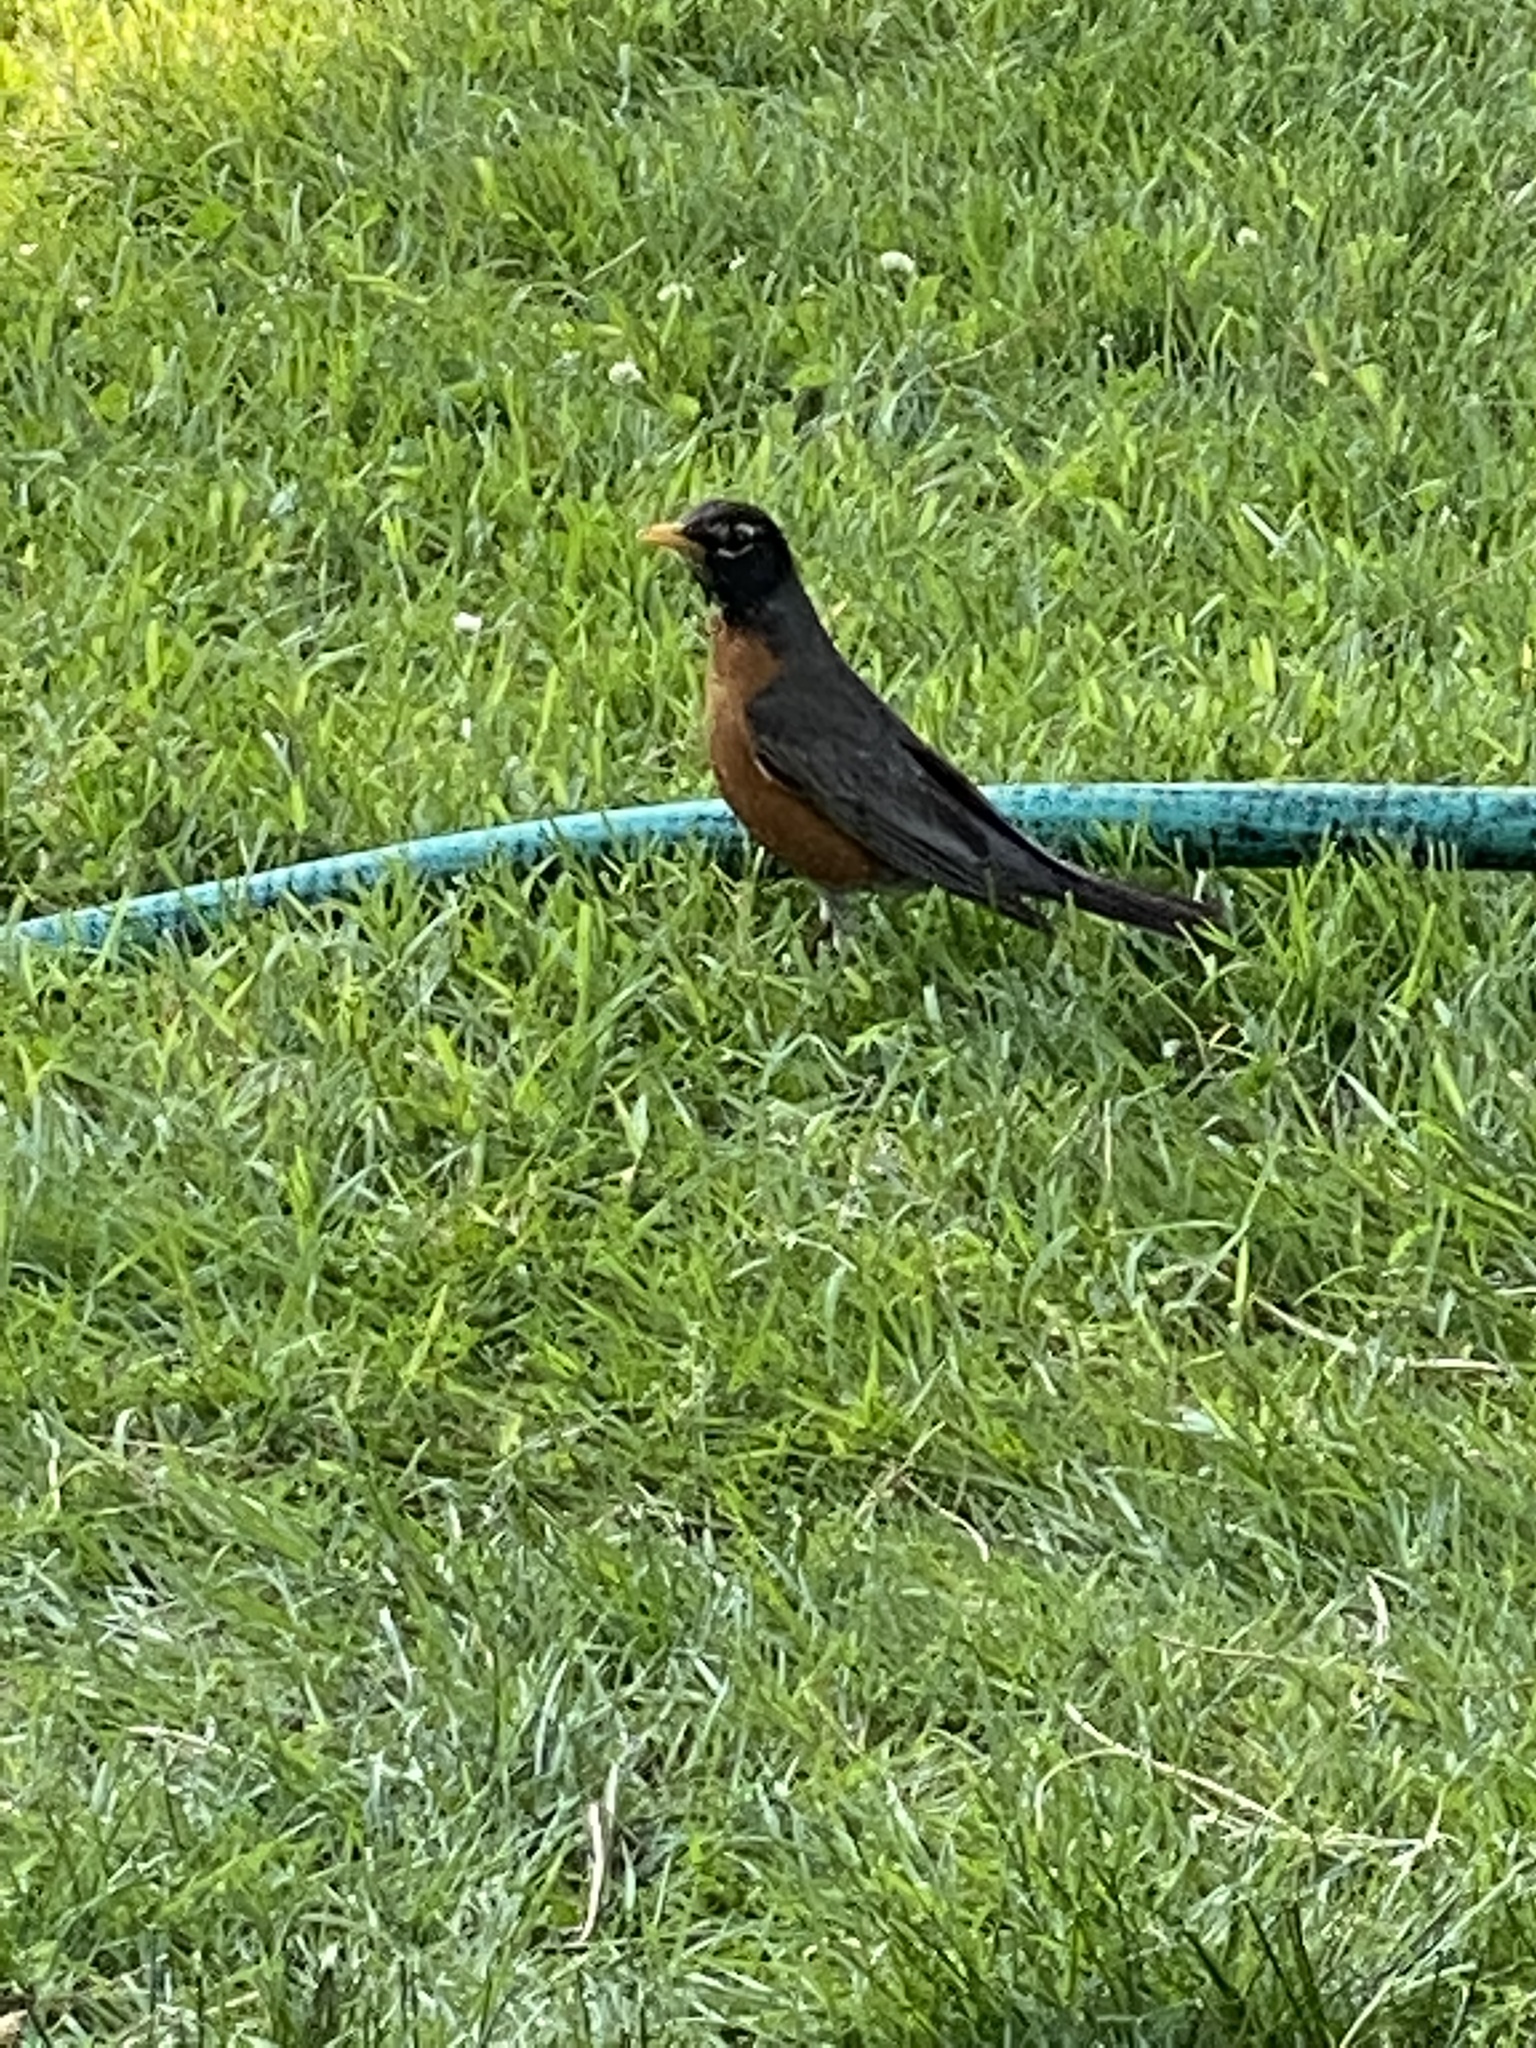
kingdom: Animalia
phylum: Chordata
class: Aves
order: Passeriformes
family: Turdidae
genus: Turdus
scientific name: Turdus migratorius
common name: American robin
